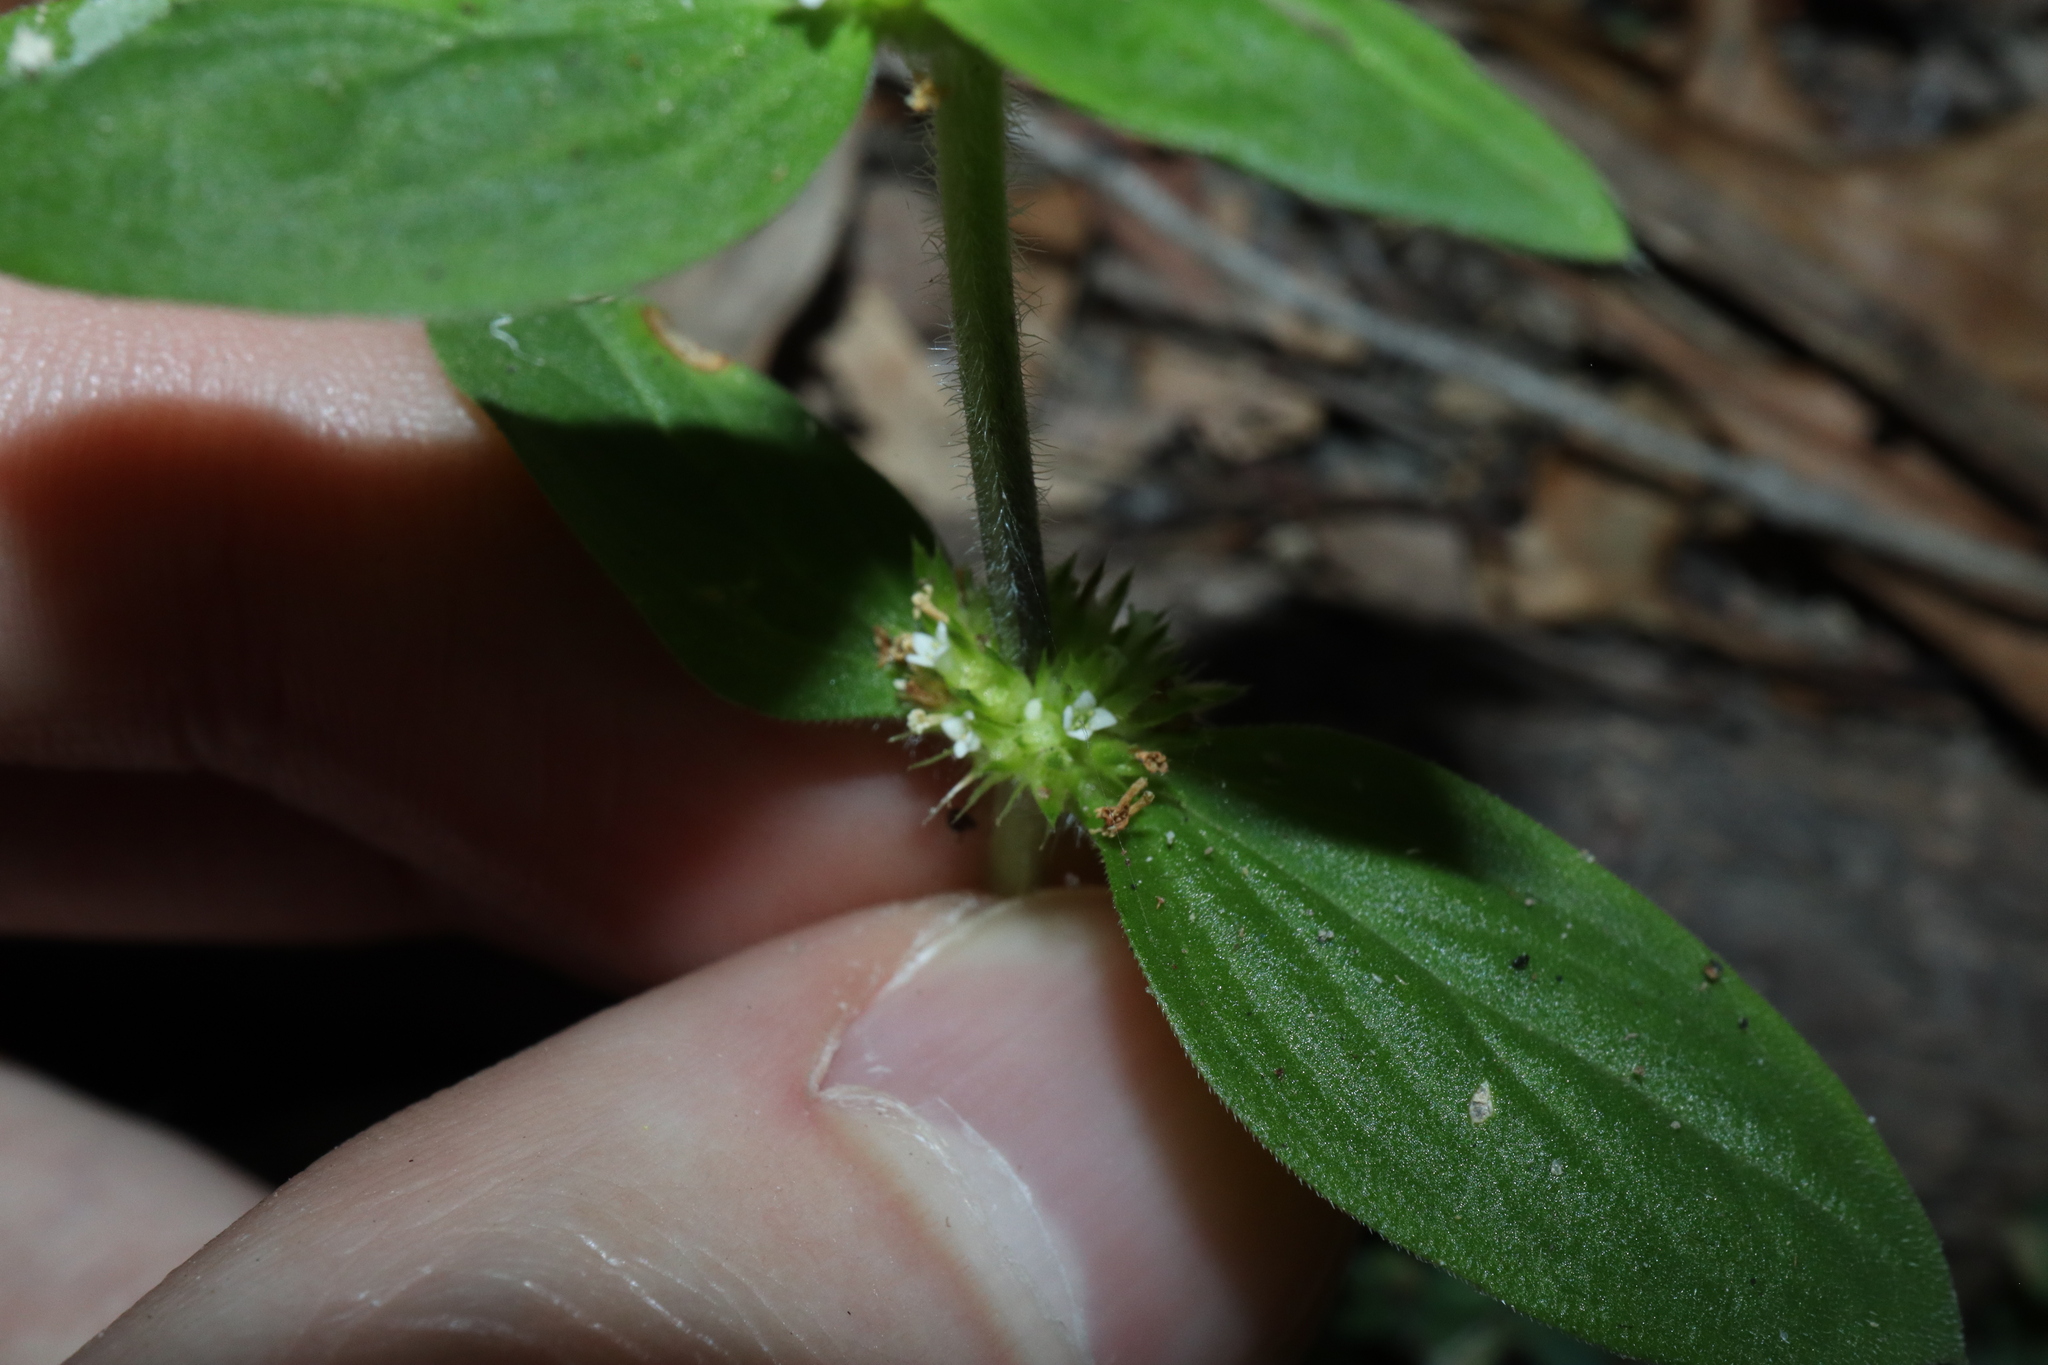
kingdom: Plantae
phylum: Tracheophyta
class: Magnoliopsida
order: Gentianales
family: Rubiaceae
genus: Mitracarpus
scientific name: Mitracarpus hirtus
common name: Tropical girdlepod
